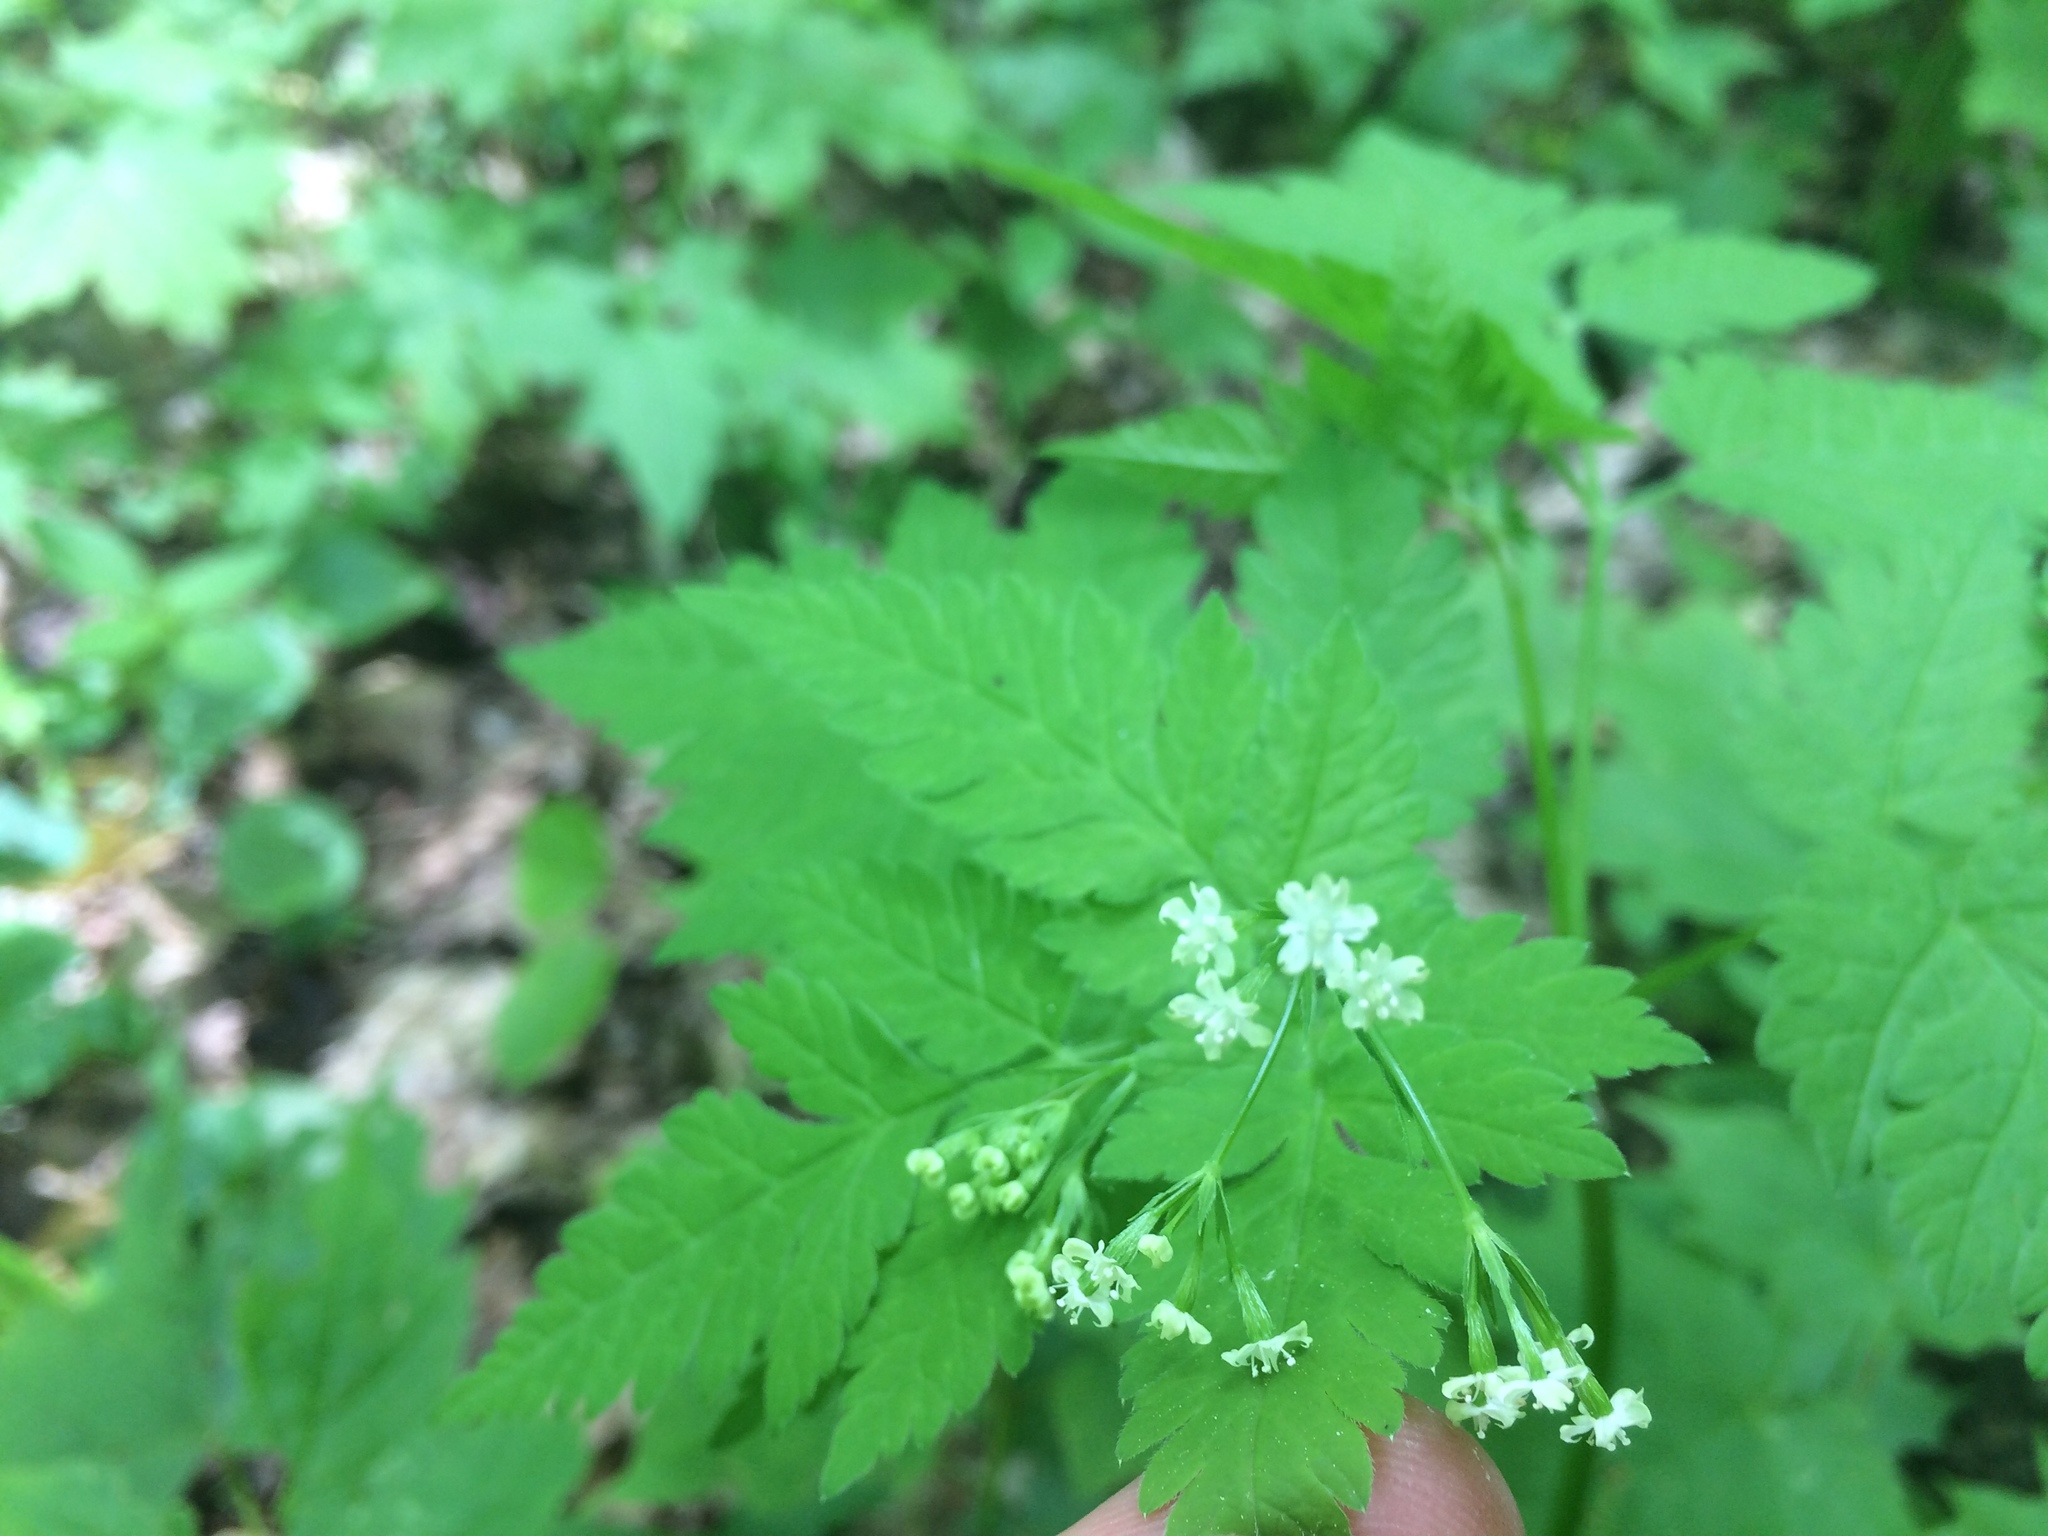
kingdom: Plantae
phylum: Tracheophyta
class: Magnoliopsida
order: Apiales
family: Apiaceae
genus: Osmorhiza
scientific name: Osmorhiza claytonii
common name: Hairy sweet cicely
